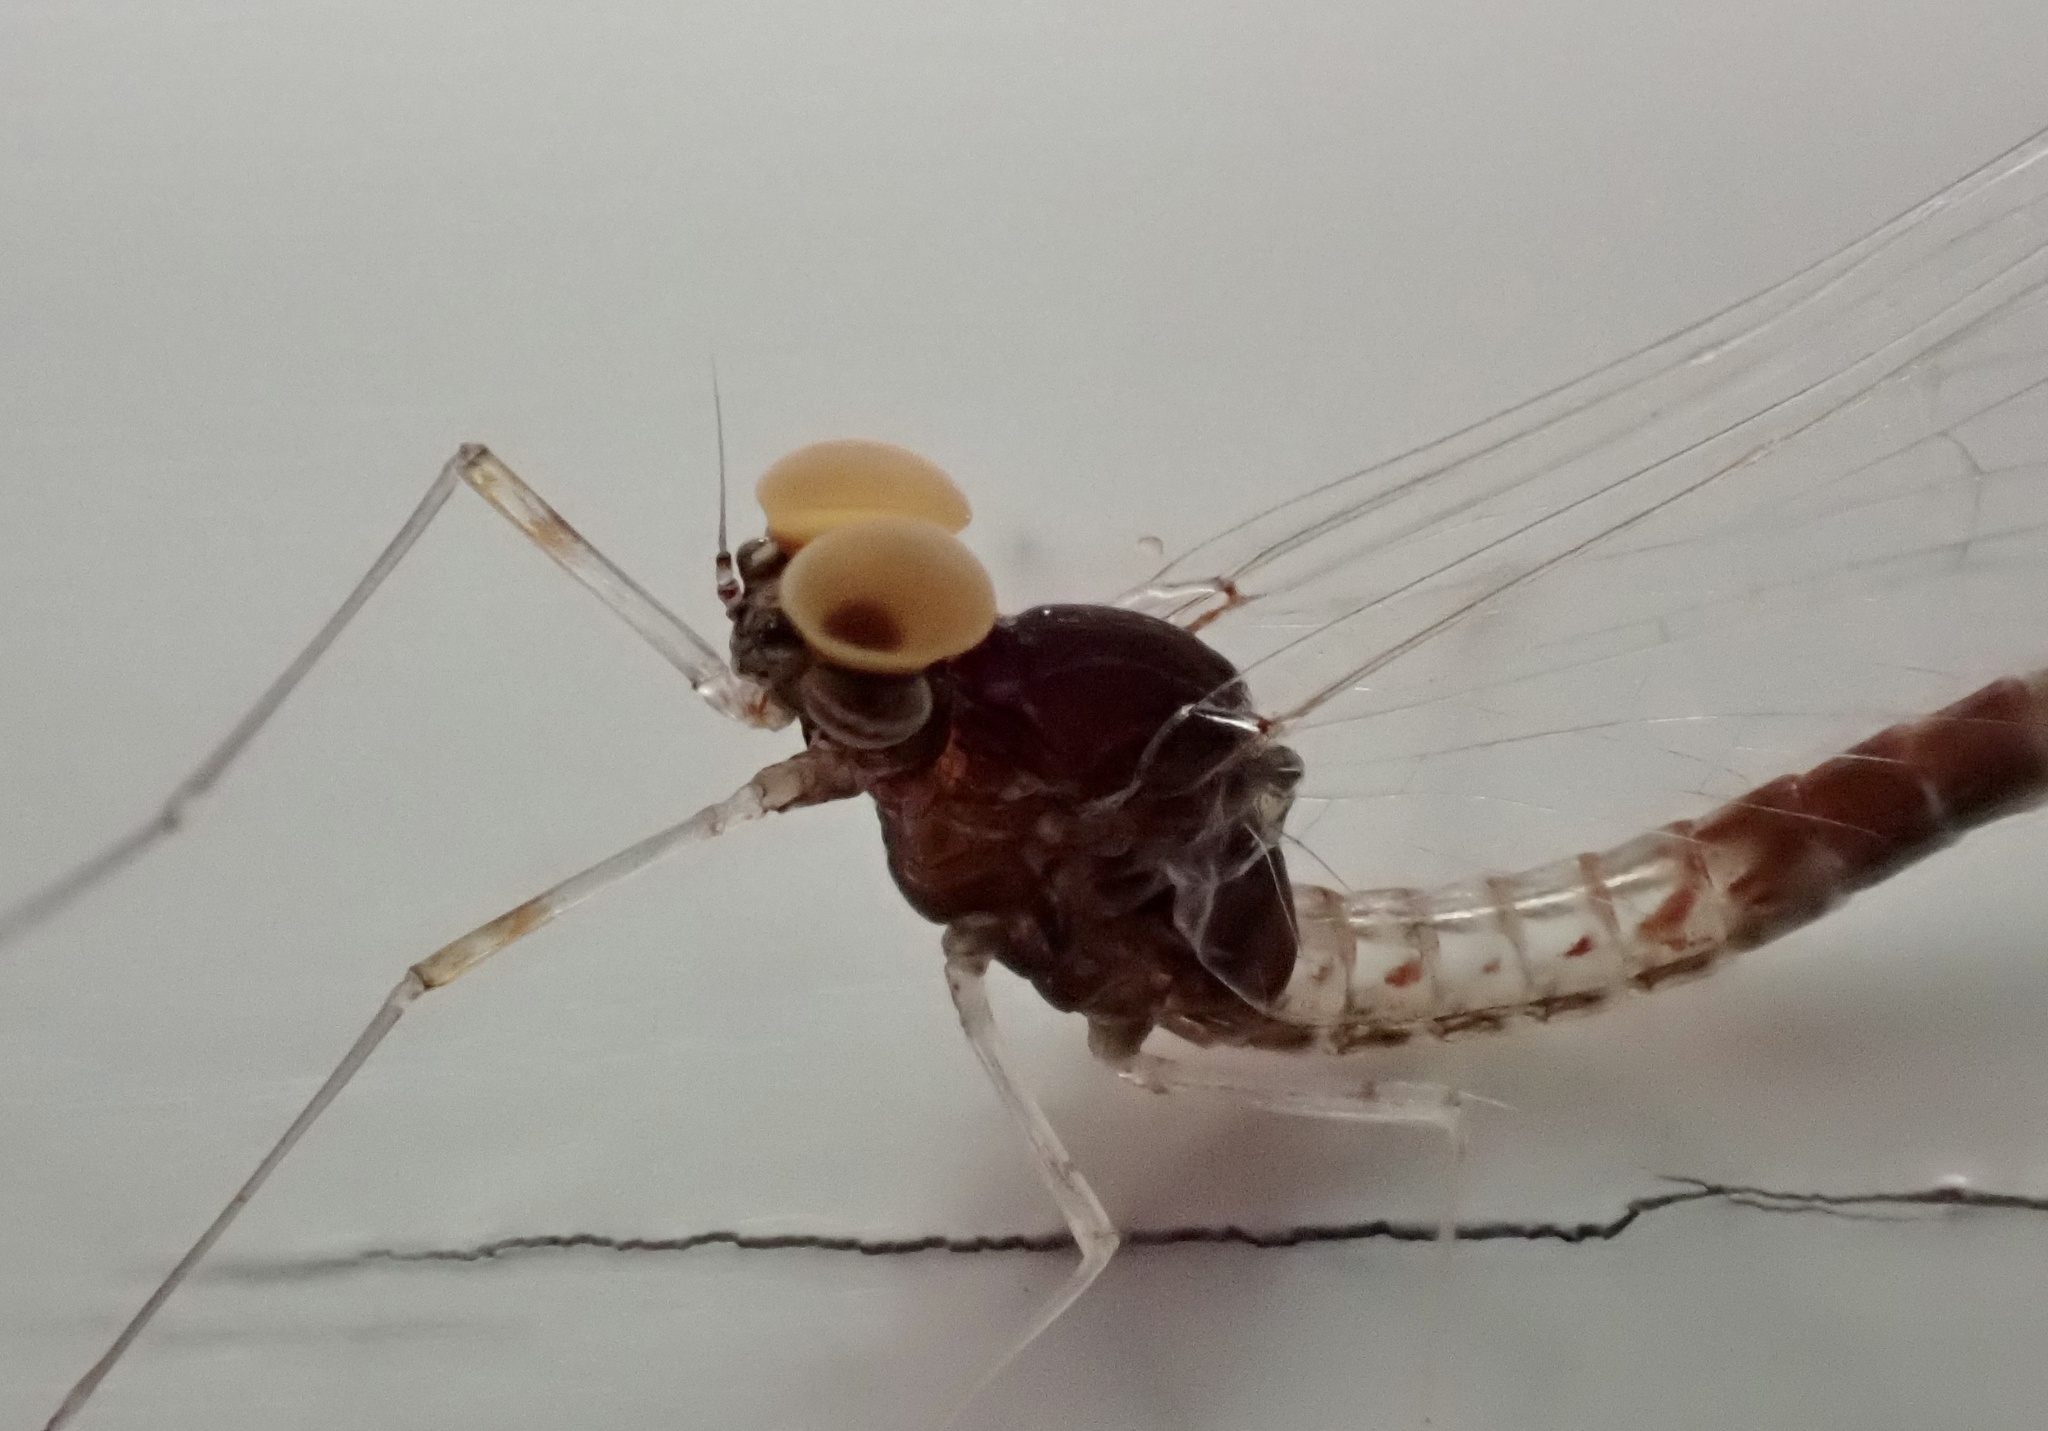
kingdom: Animalia
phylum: Arthropoda
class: Insecta
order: Ephemeroptera
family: Baetidae
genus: Cloeon
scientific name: Cloeon dipterum
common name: Pond olive
